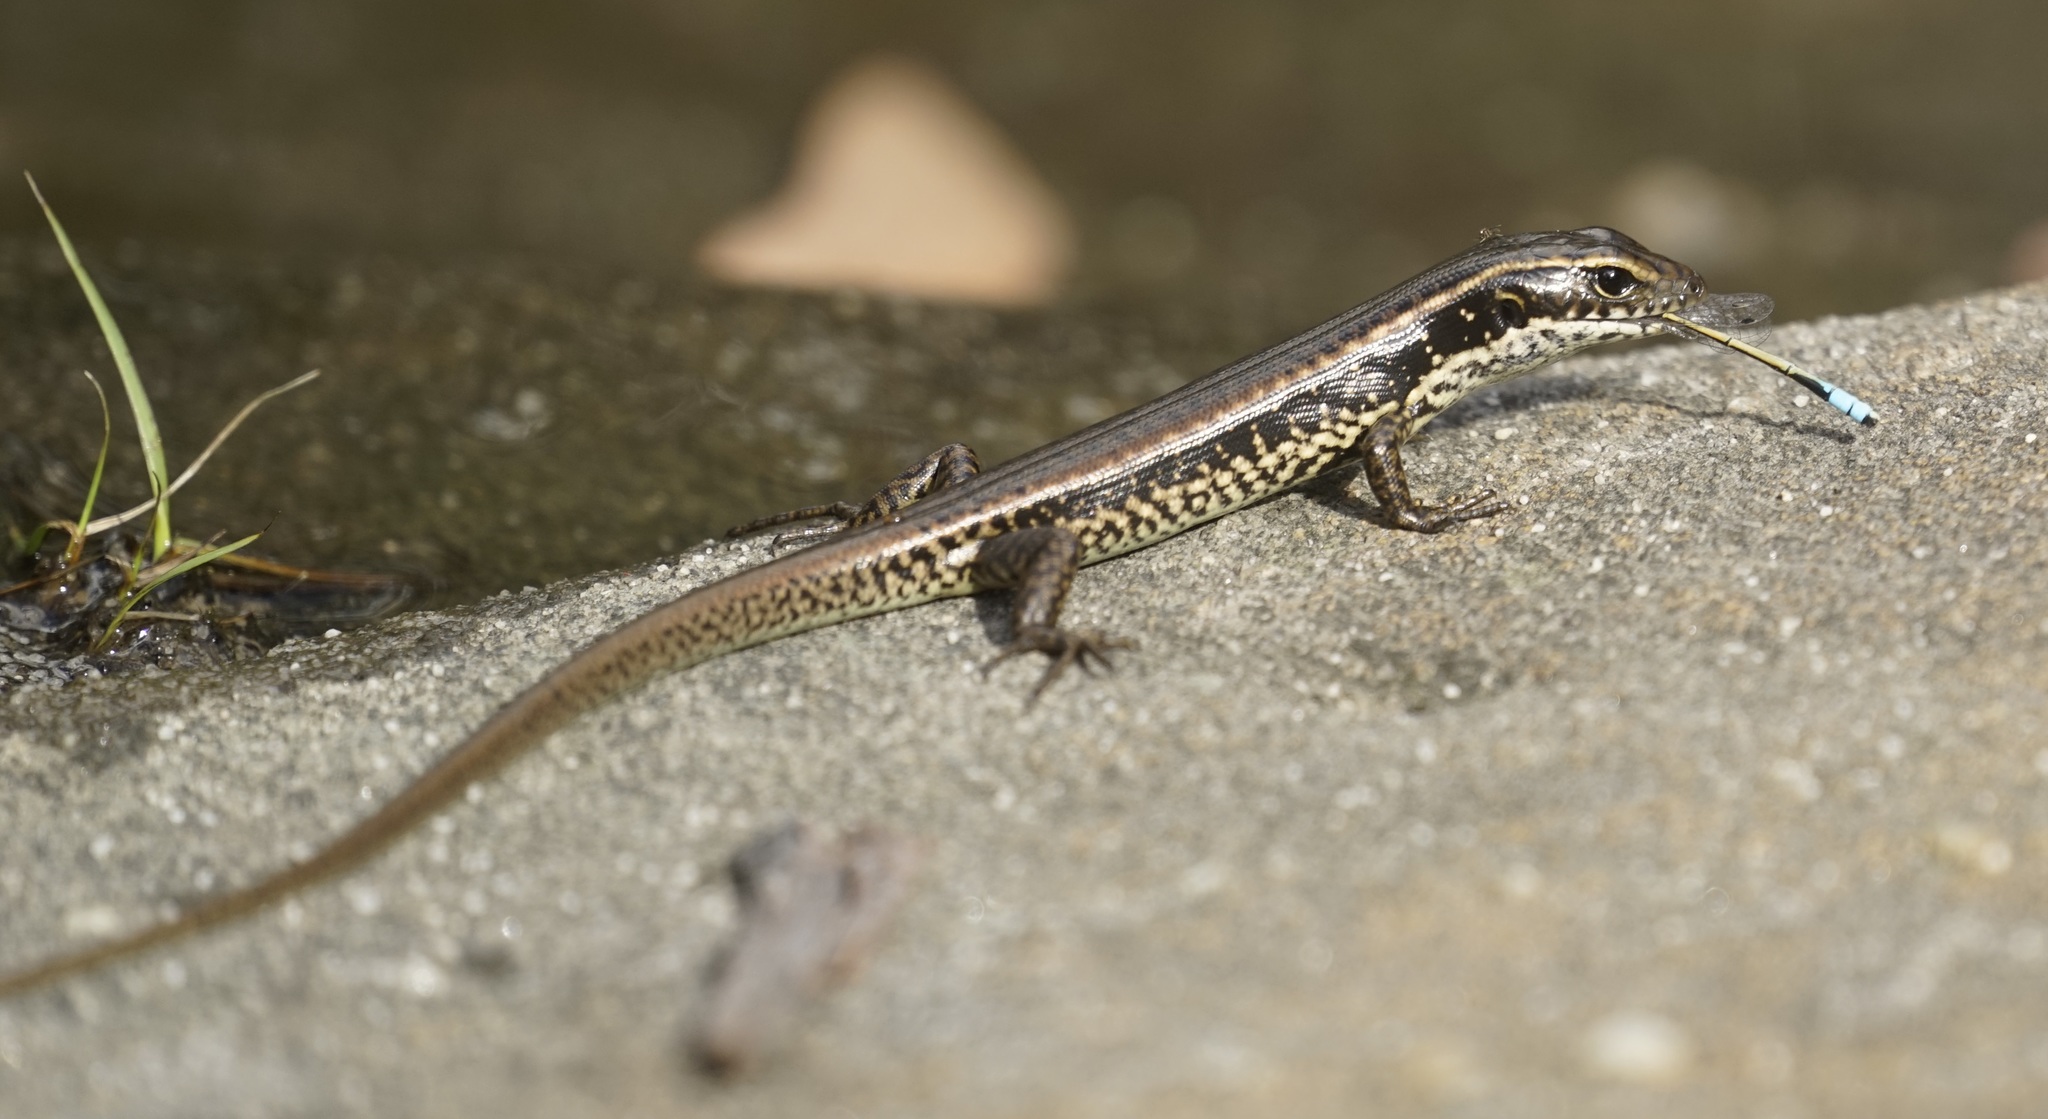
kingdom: Animalia
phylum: Chordata
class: Squamata
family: Scincidae
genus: Eulamprus
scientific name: Eulamprus quoyii
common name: Eastern water skink
